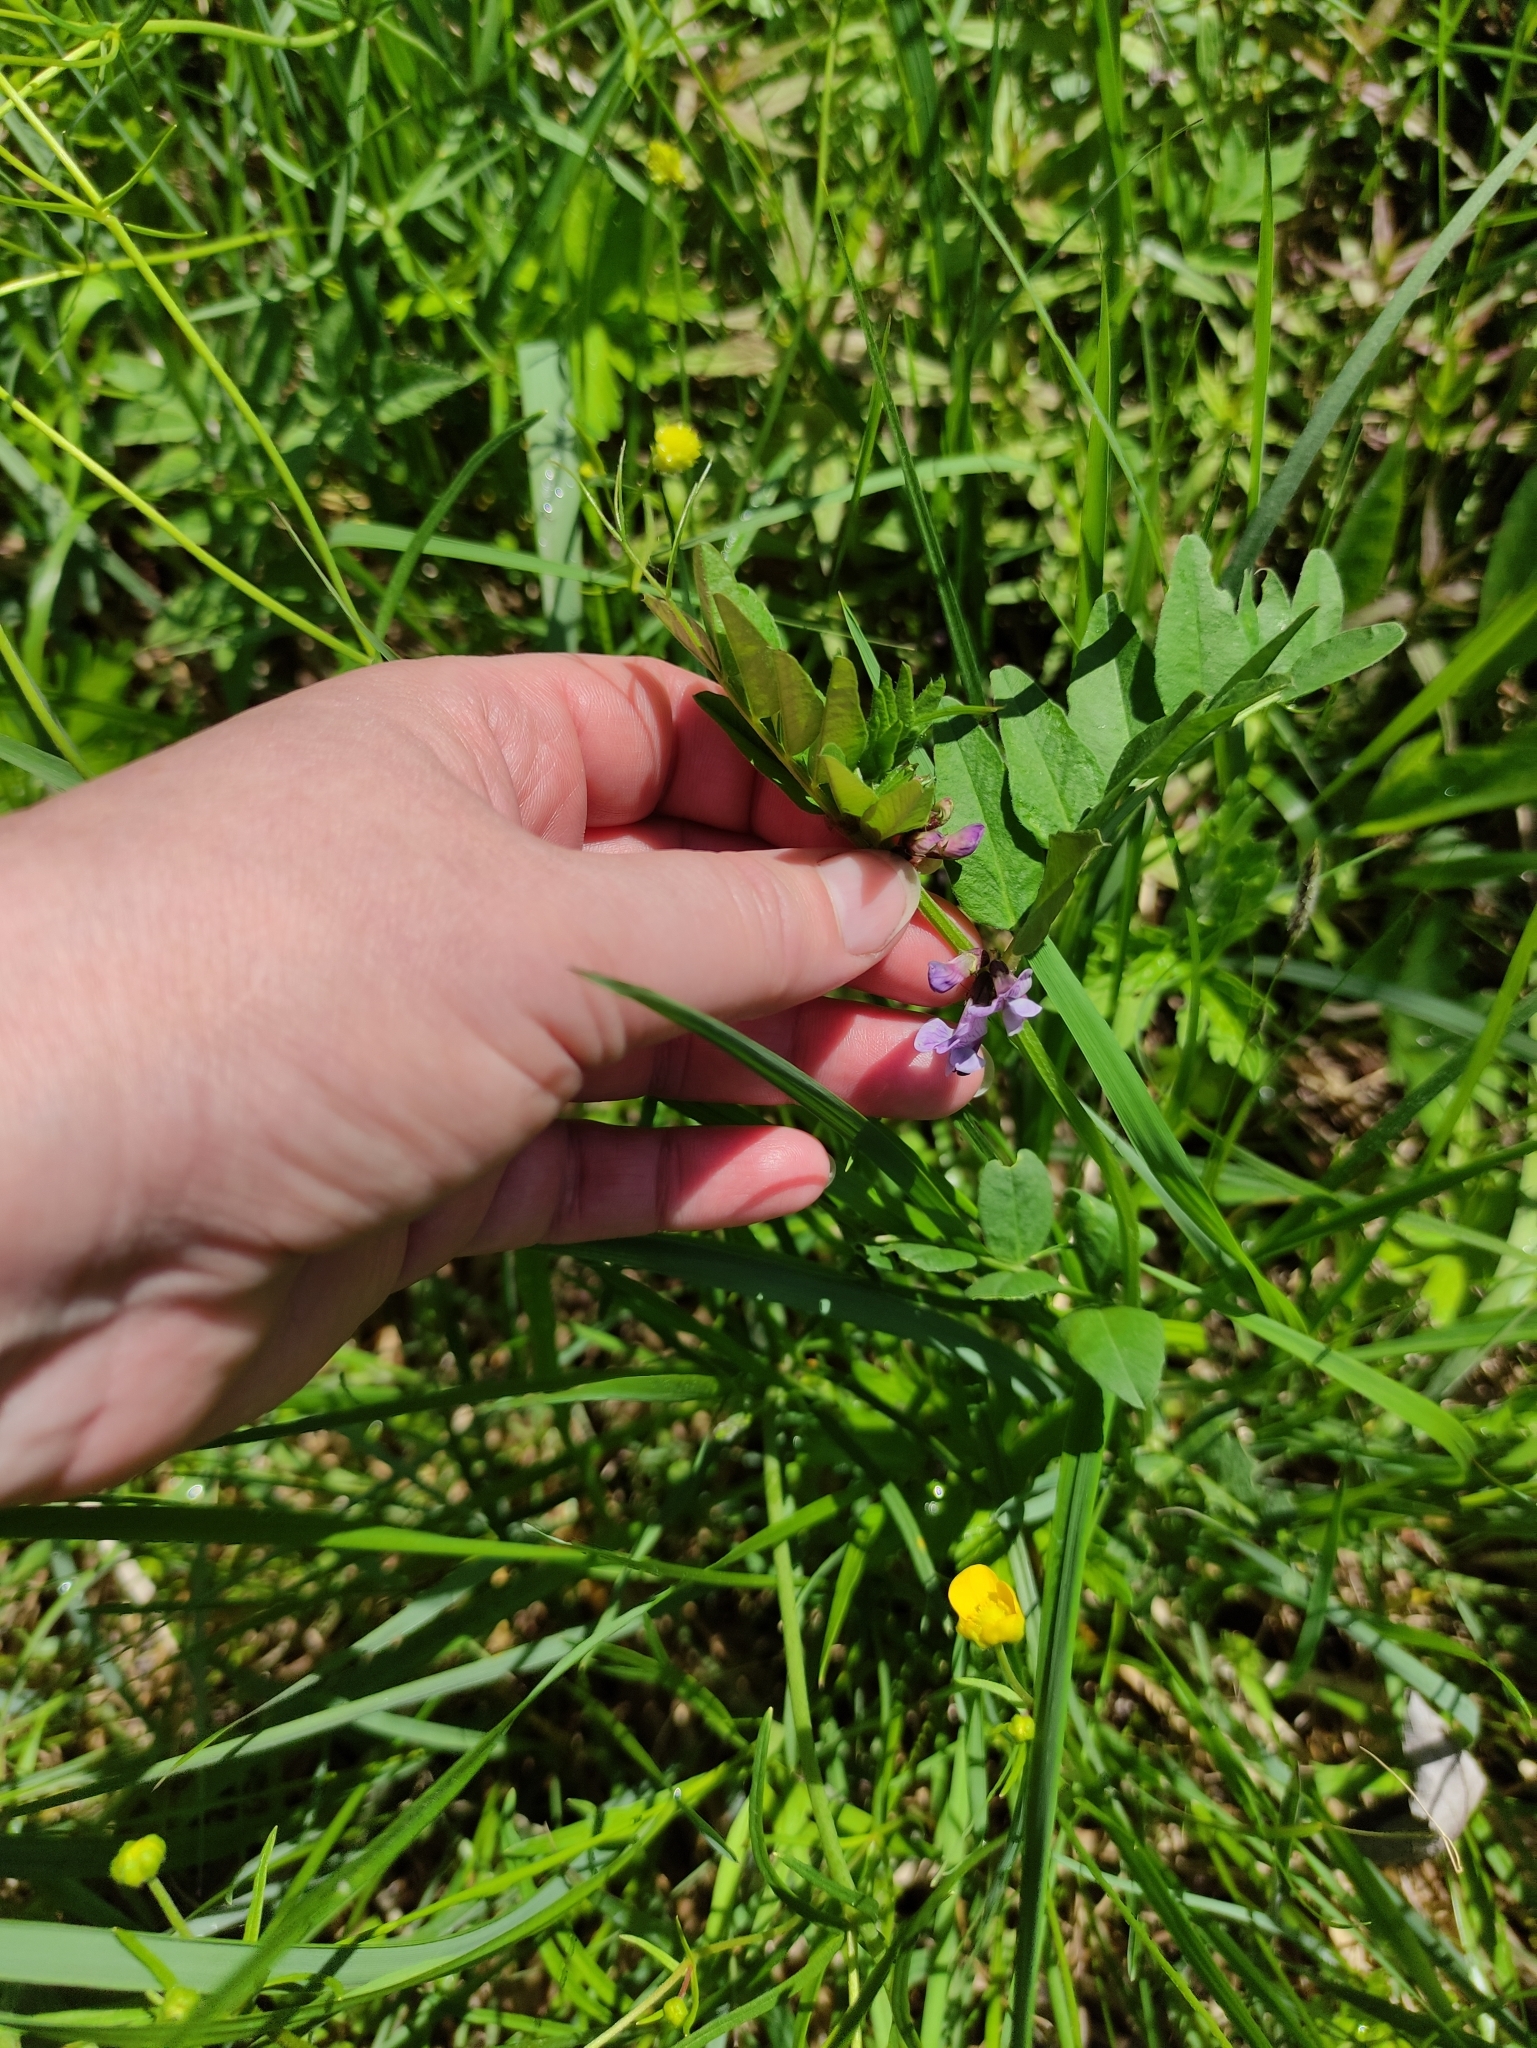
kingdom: Plantae
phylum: Tracheophyta
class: Magnoliopsida
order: Fabales
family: Fabaceae
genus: Vicia
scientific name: Vicia sepium
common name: Bush vetch
